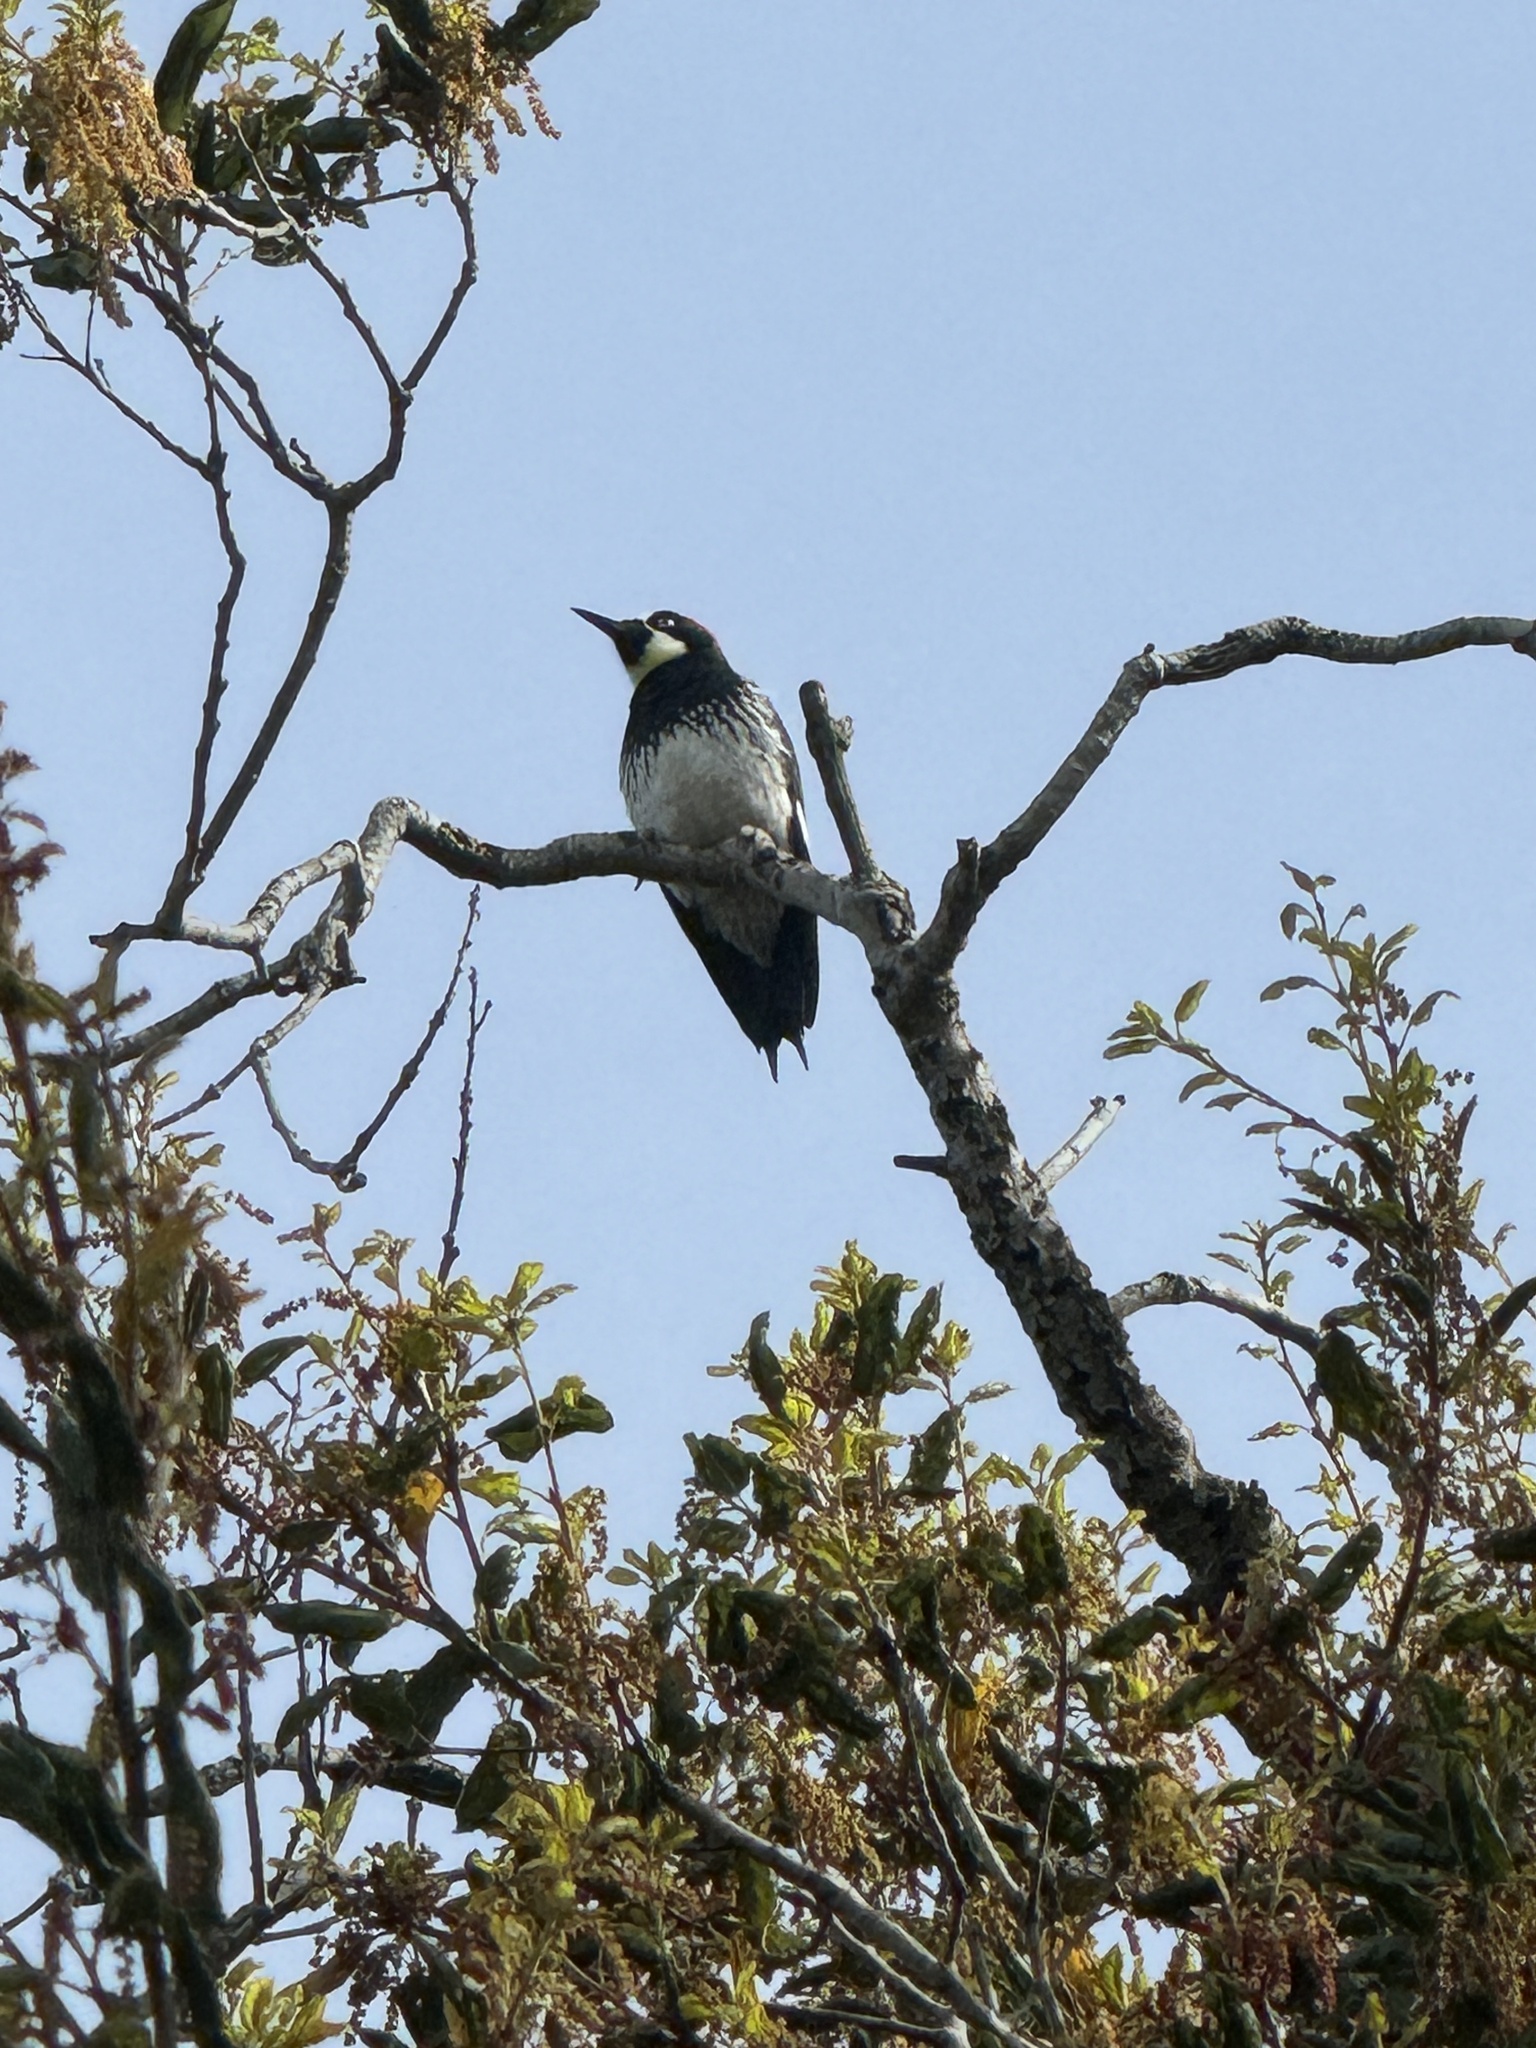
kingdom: Animalia
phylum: Chordata
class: Aves
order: Piciformes
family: Picidae
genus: Melanerpes
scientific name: Melanerpes formicivorus
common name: Acorn woodpecker
